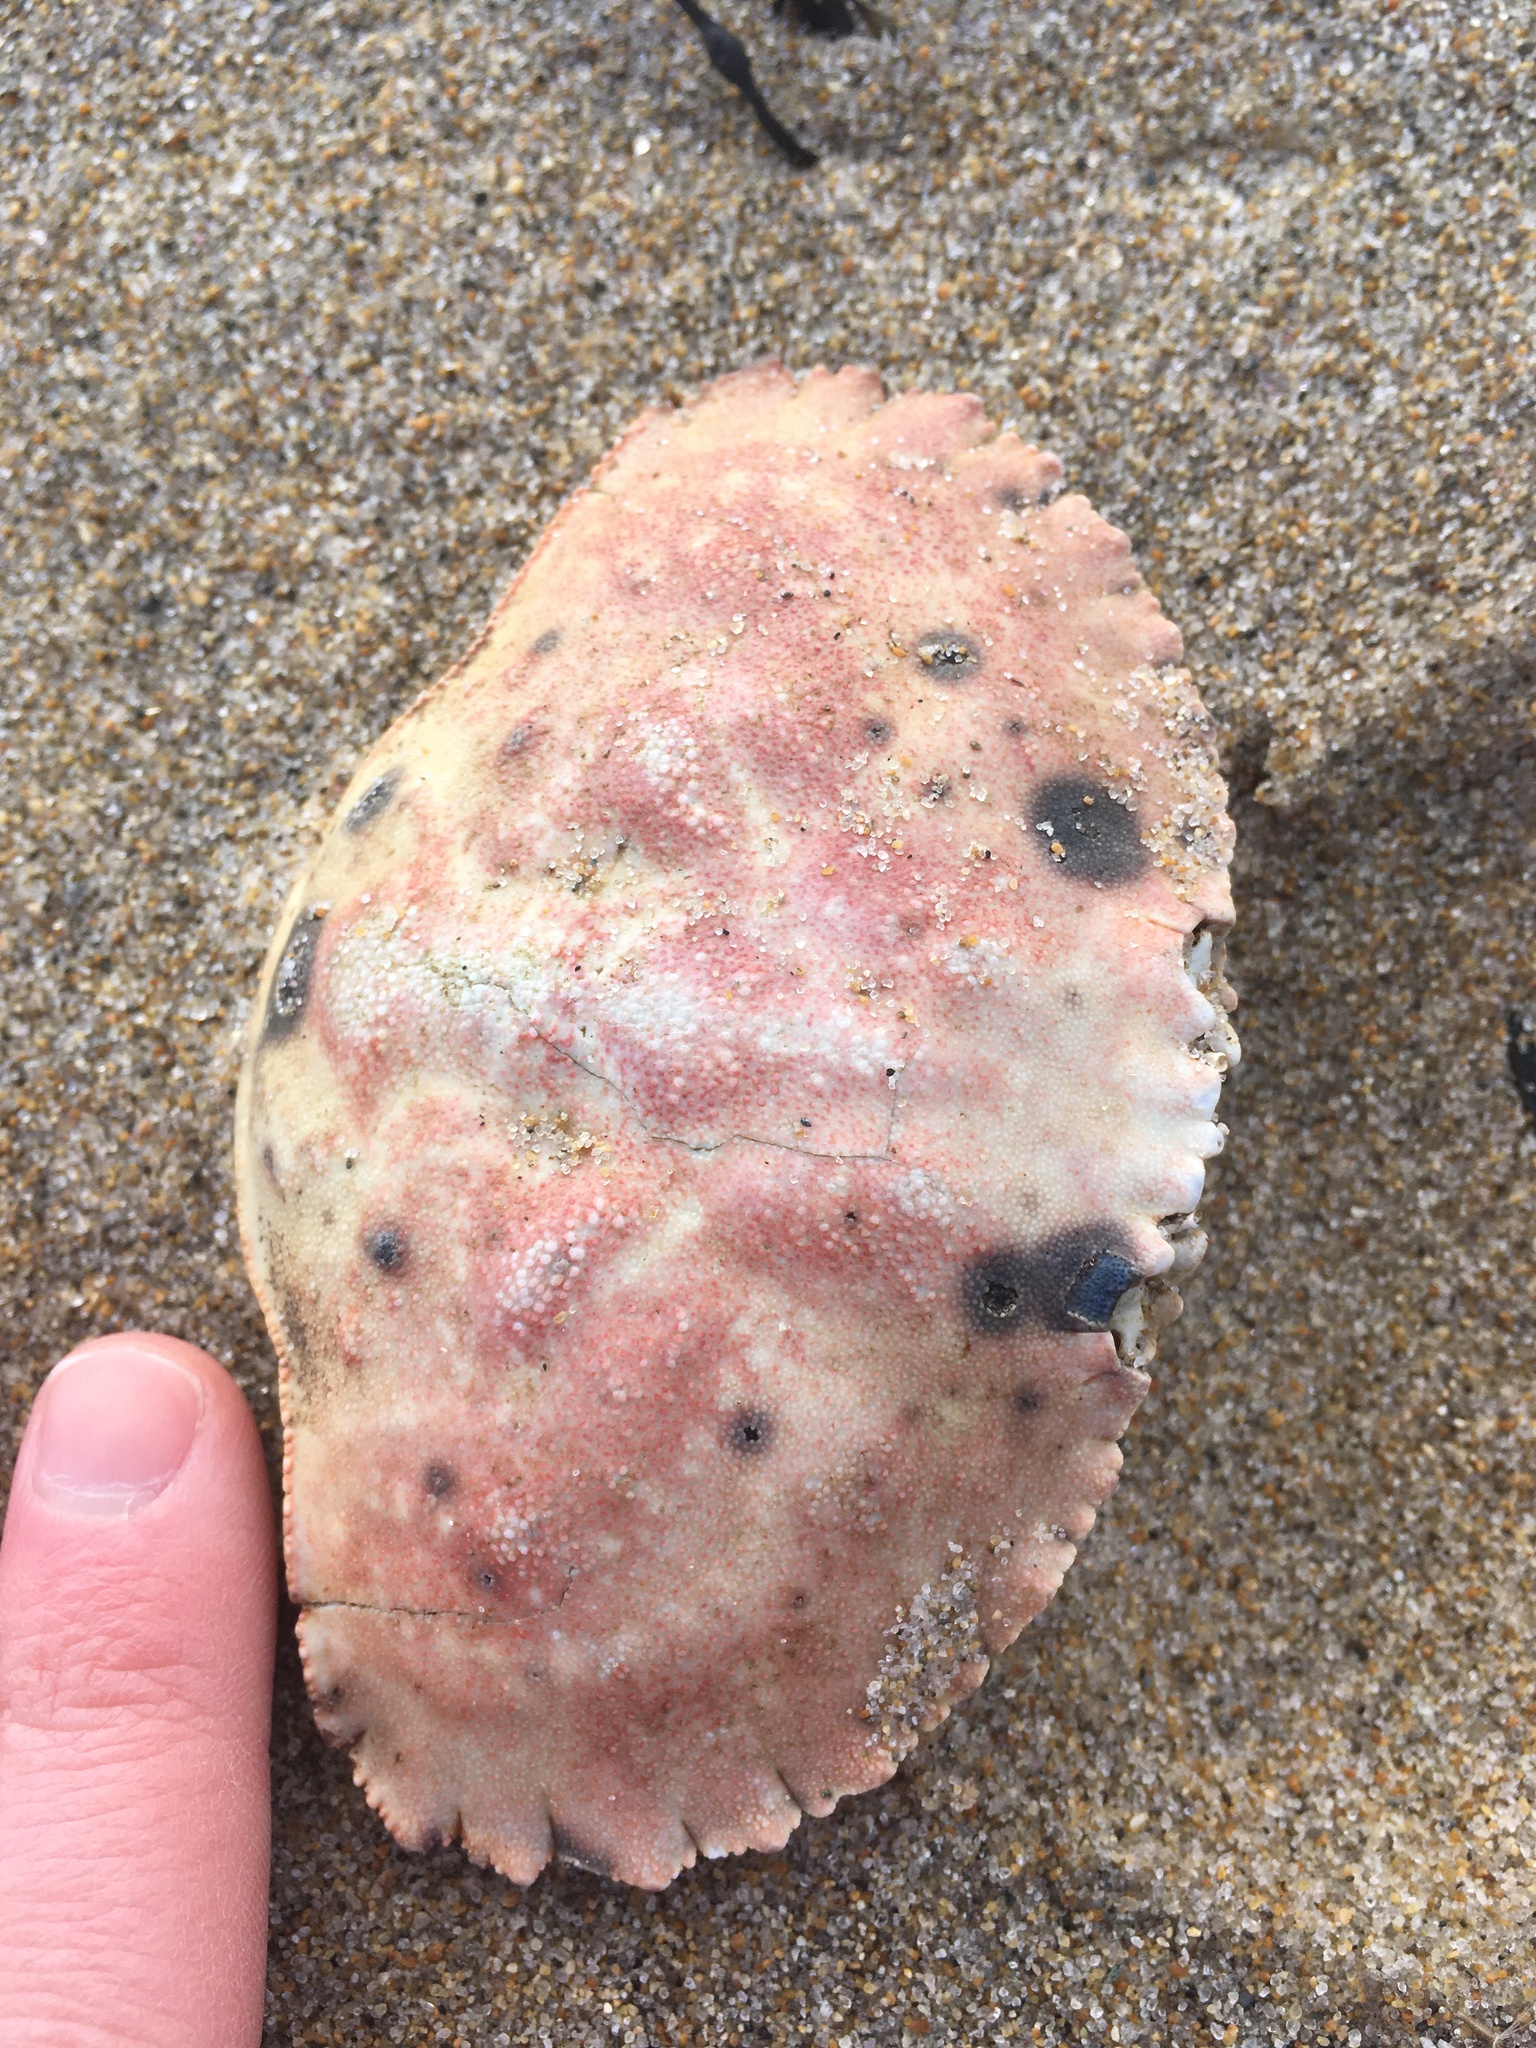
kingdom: Animalia
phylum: Arthropoda
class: Malacostraca
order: Decapoda
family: Cancridae
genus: Cancer
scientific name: Cancer borealis
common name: Jonah crab
